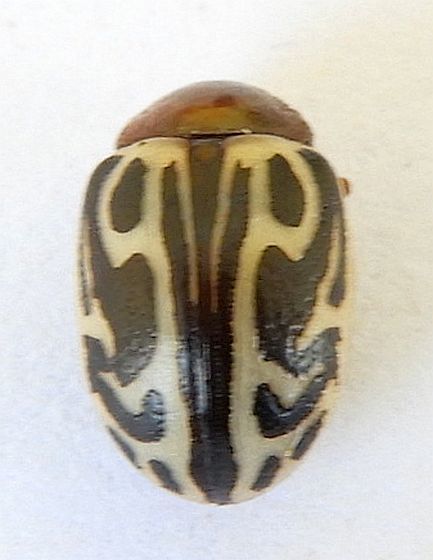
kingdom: Animalia
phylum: Arthropoda
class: Insecta
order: Coleoptera
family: Chrysomelidae
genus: Calligrapha
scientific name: Calligrapha
